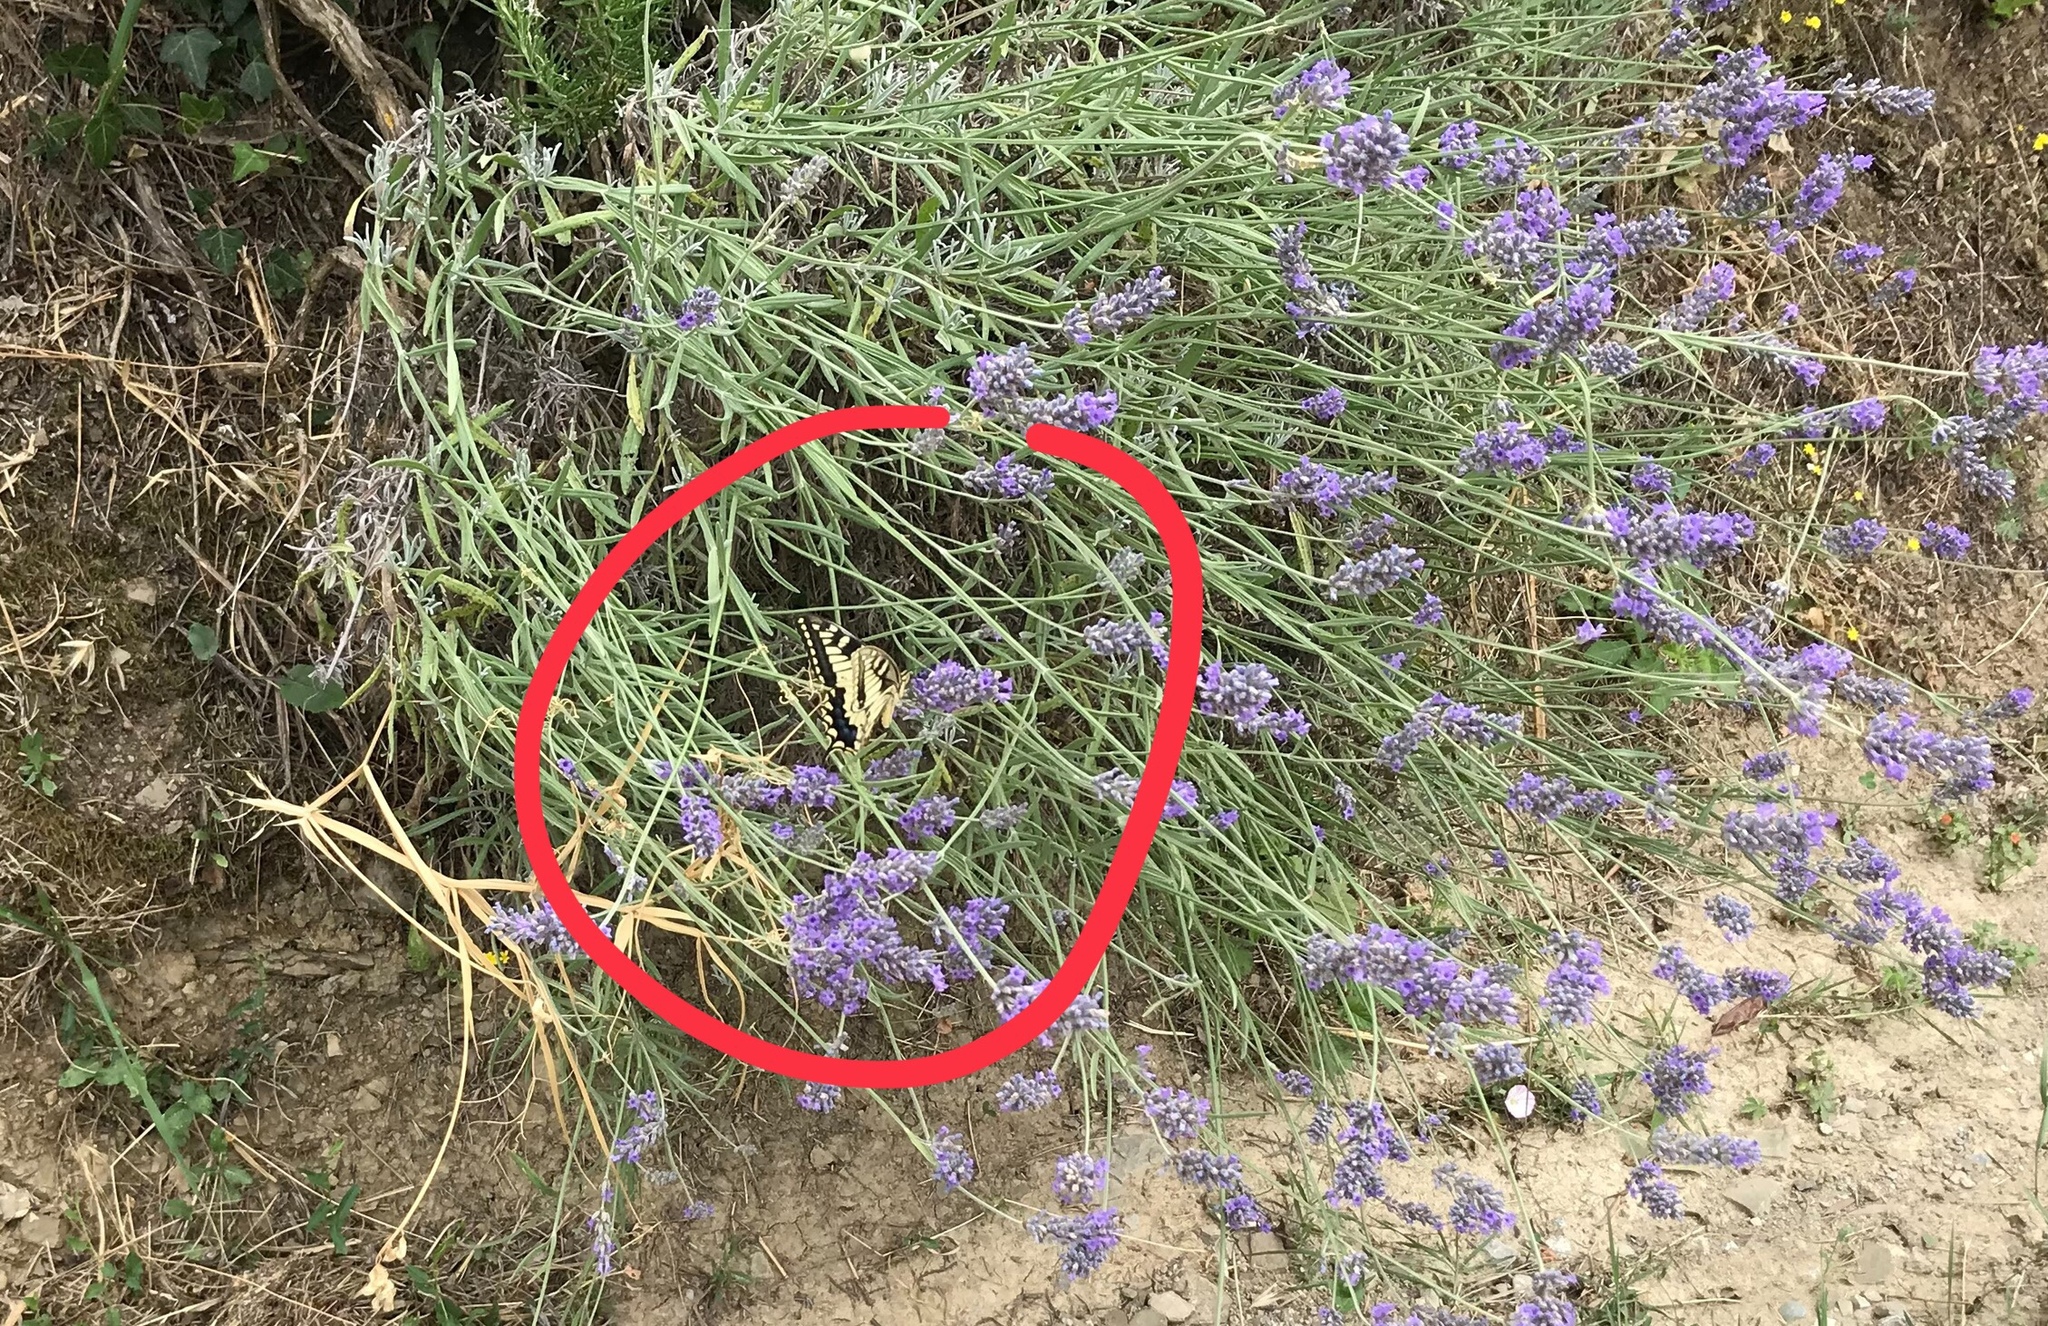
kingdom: Animalia
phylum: Arthropoda
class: Insecta
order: Lepidoptera
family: Papilionidae
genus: Papilio
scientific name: Papilio machaon
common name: Swallowtail
